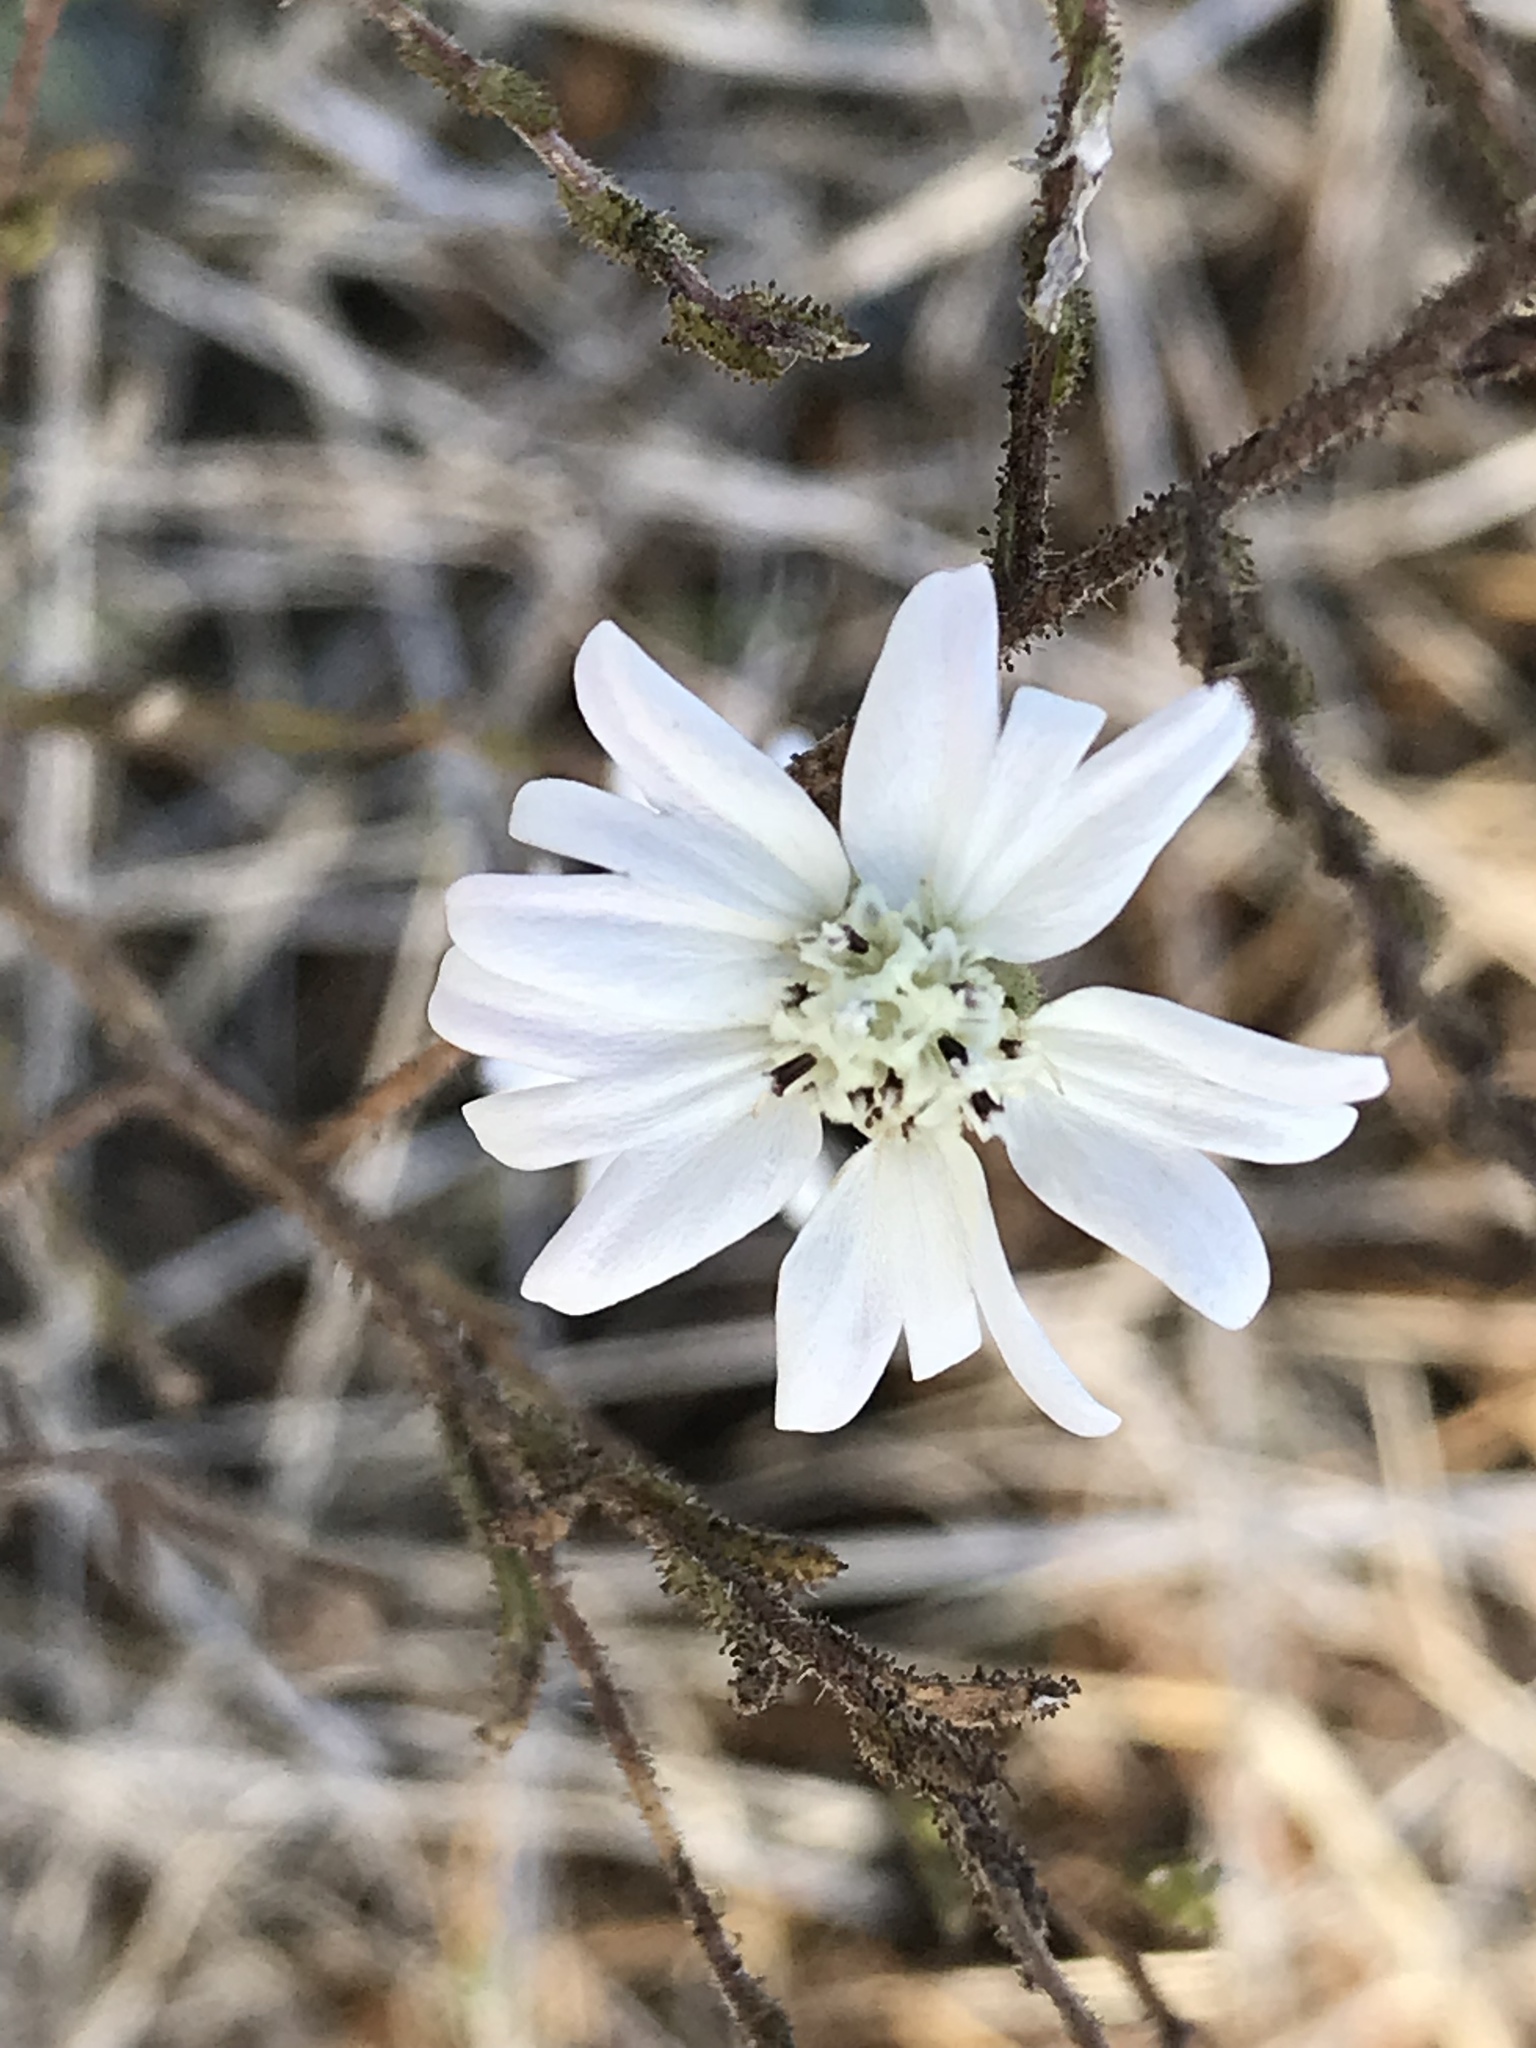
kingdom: Plantae
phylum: Tracheophyta
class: Magnoliopsida
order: Asterales
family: Asteraceae
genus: Hemizonia
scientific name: Hemizonia congesta
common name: Hayfield tarweed
